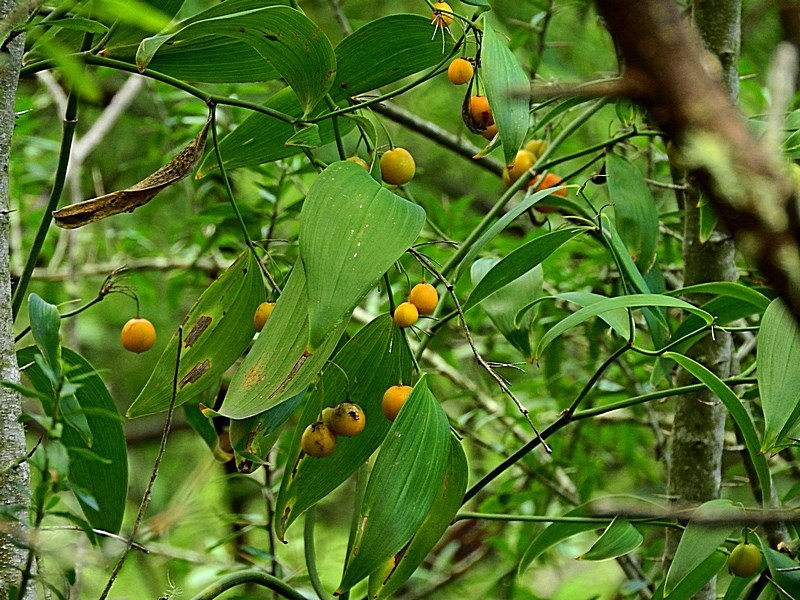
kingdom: Plantae
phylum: Tracheophyta
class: Liliopsida
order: Asparagales
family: Asparagaceae
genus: Eustrephus
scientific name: Eustrephus latifolius
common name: Orangevine
